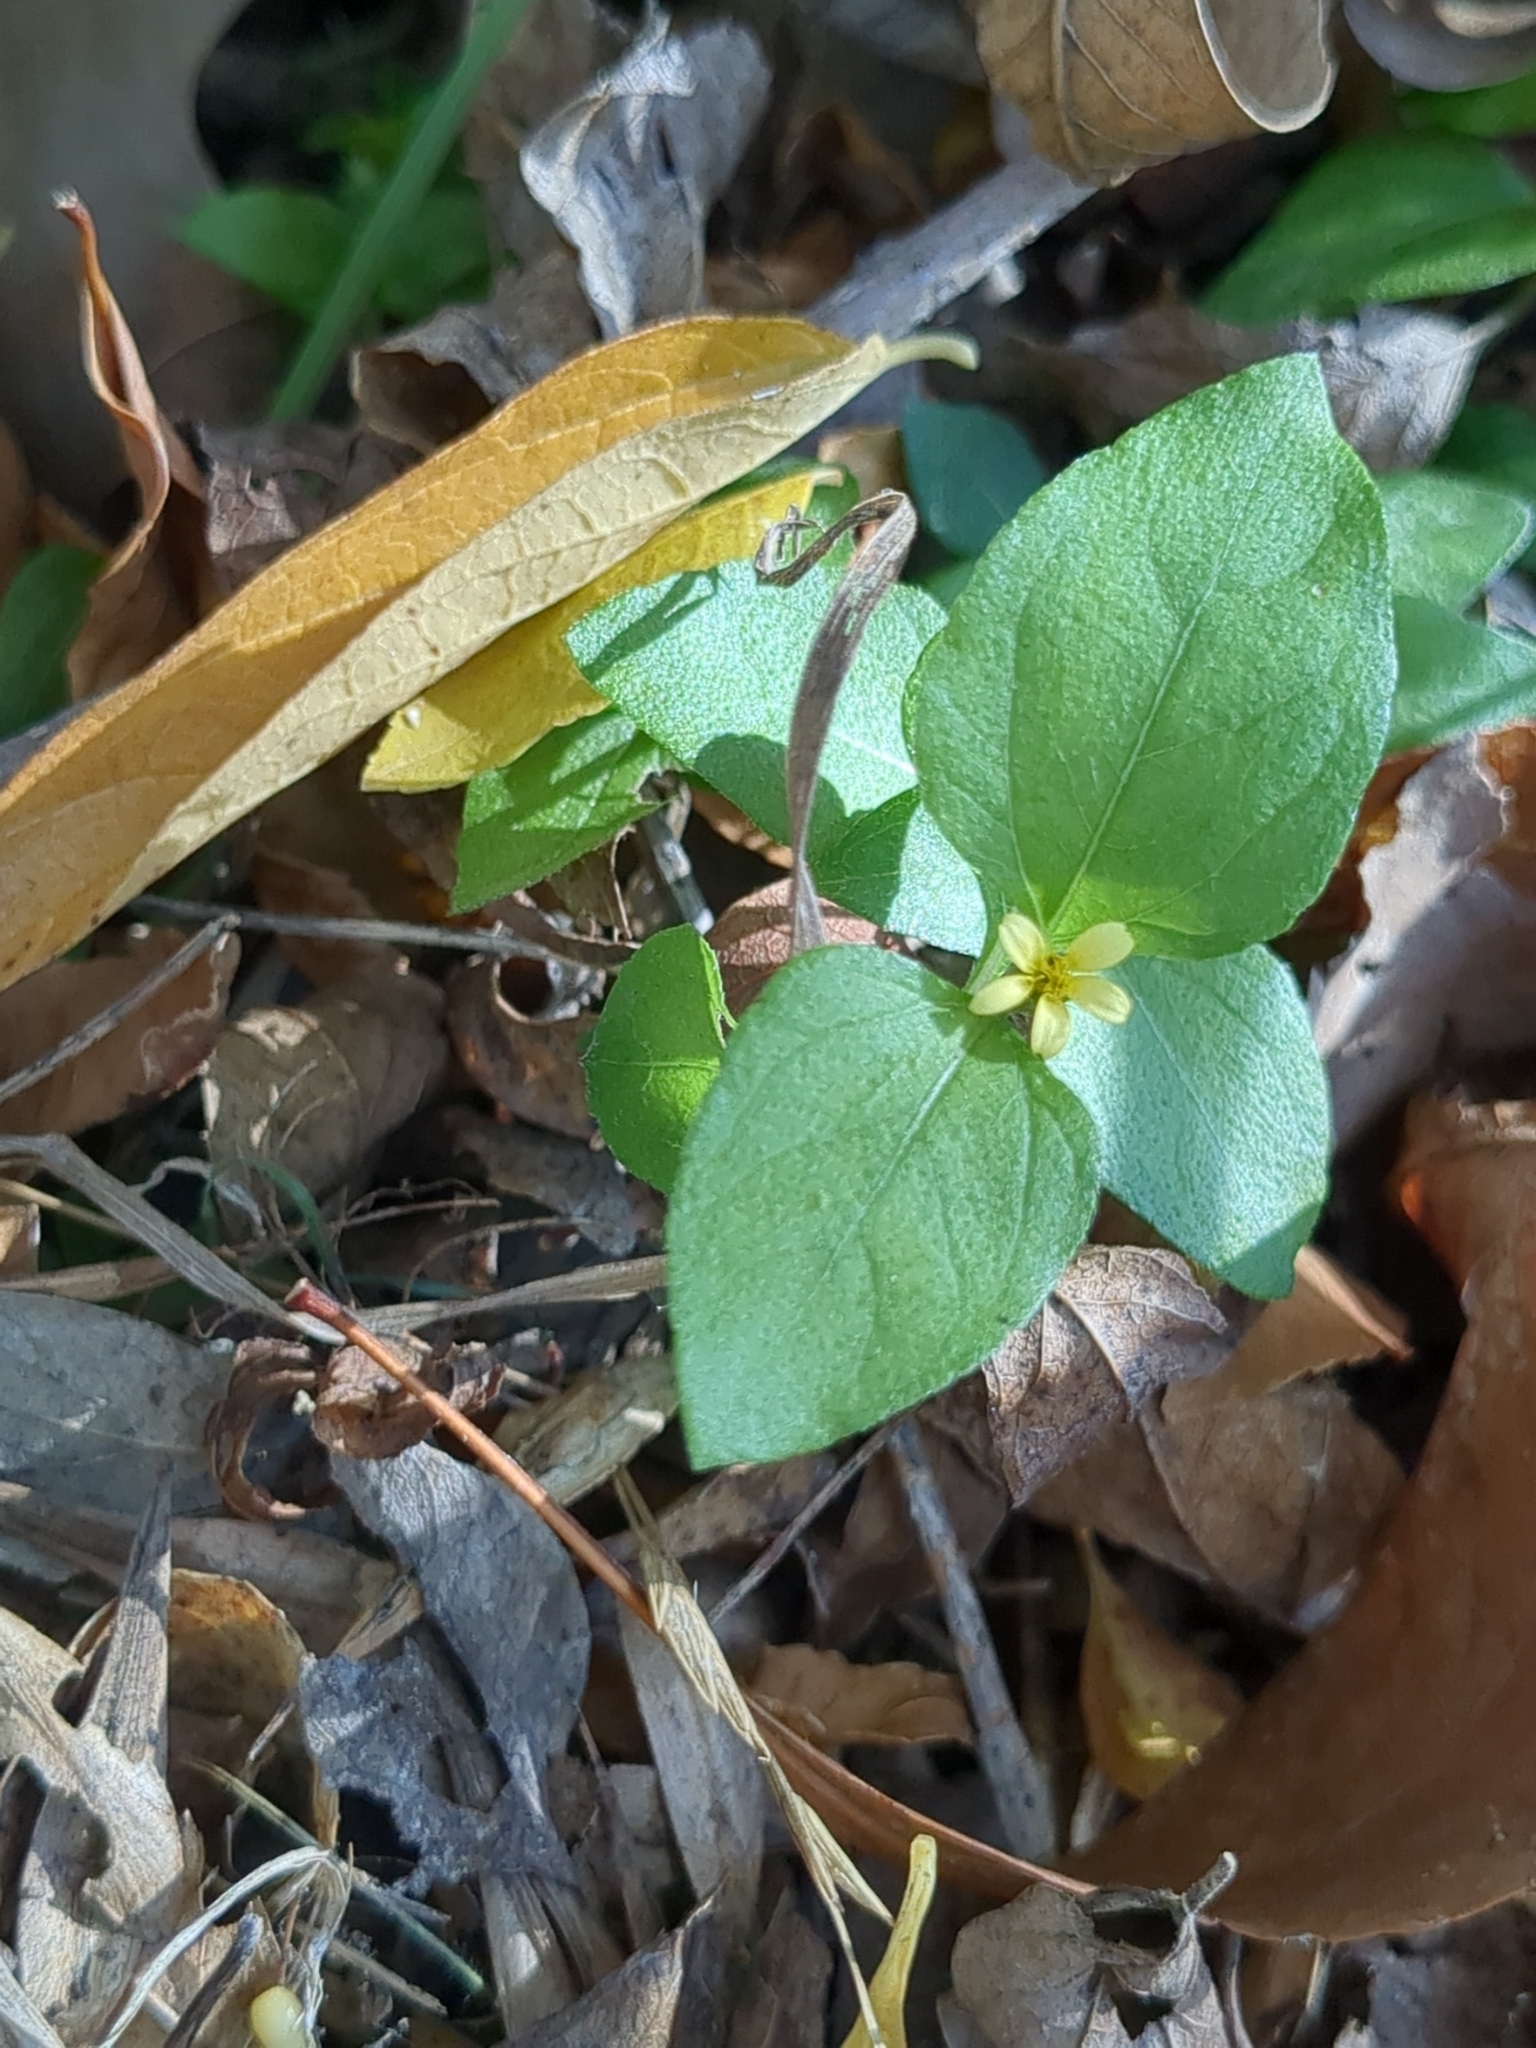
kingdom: Plantae
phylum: Tracheophyta
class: Magnoliopsida
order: Asterales
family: Asteraceae
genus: Calyptocarpus
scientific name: Calyptocarpus vialis
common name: Straggler daisy
